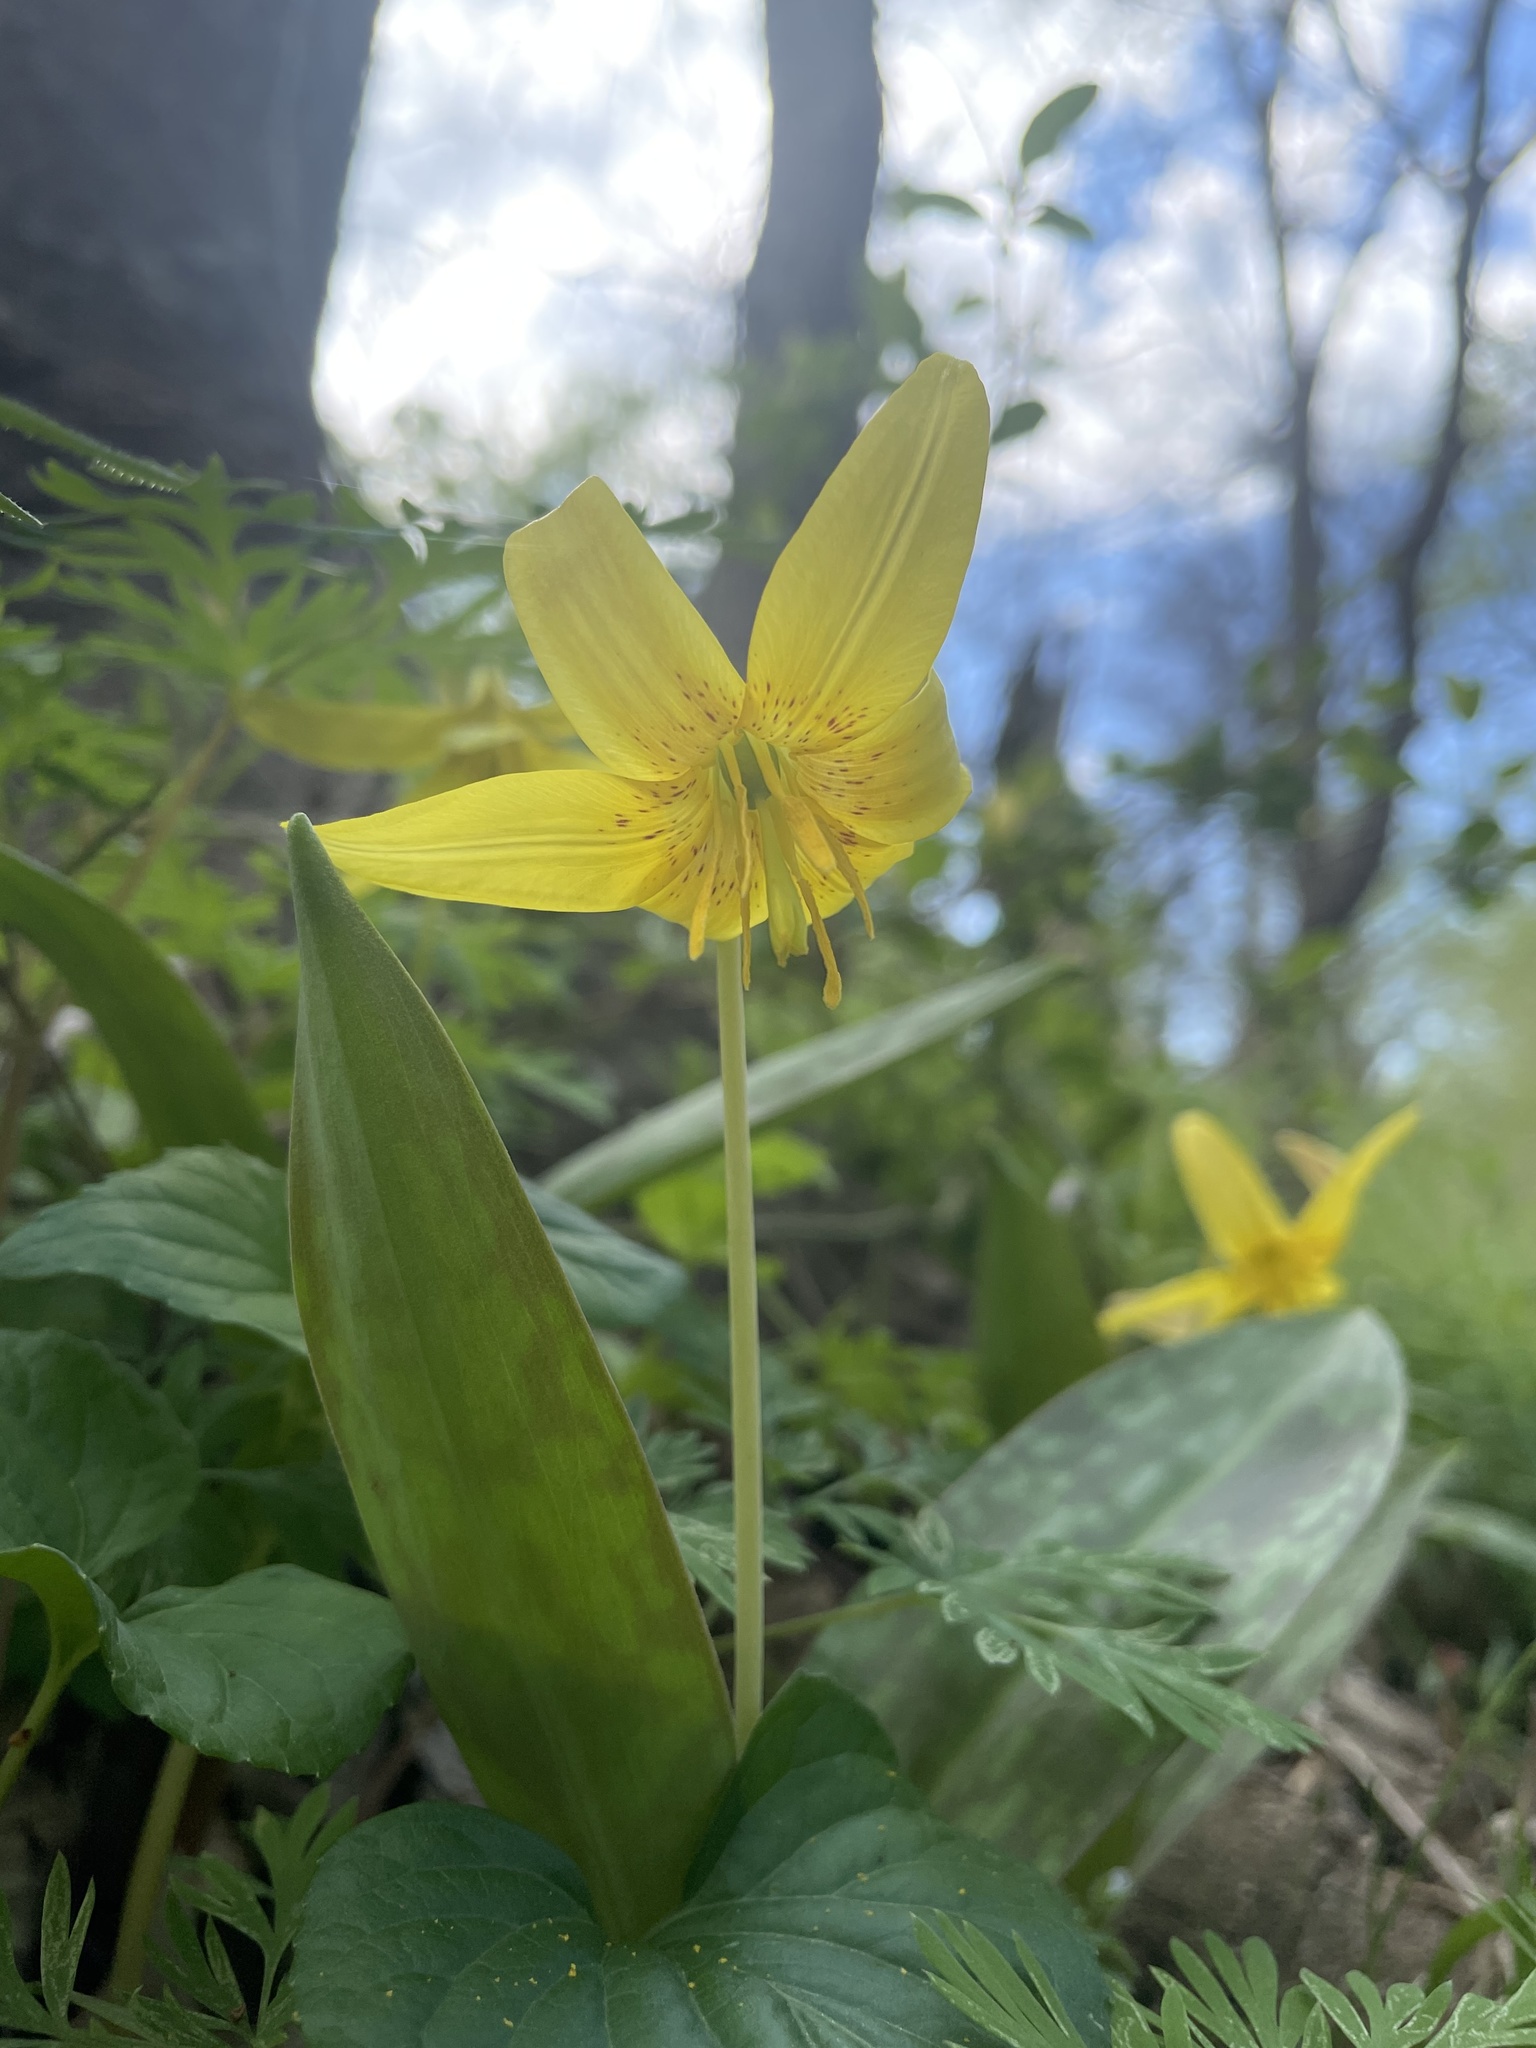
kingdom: Plantae
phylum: Tracheophyta
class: Liliopsida
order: Liliales
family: Liliaceae
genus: Erythronium
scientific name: Erythronium americanum
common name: Yellow adder's-tongue
